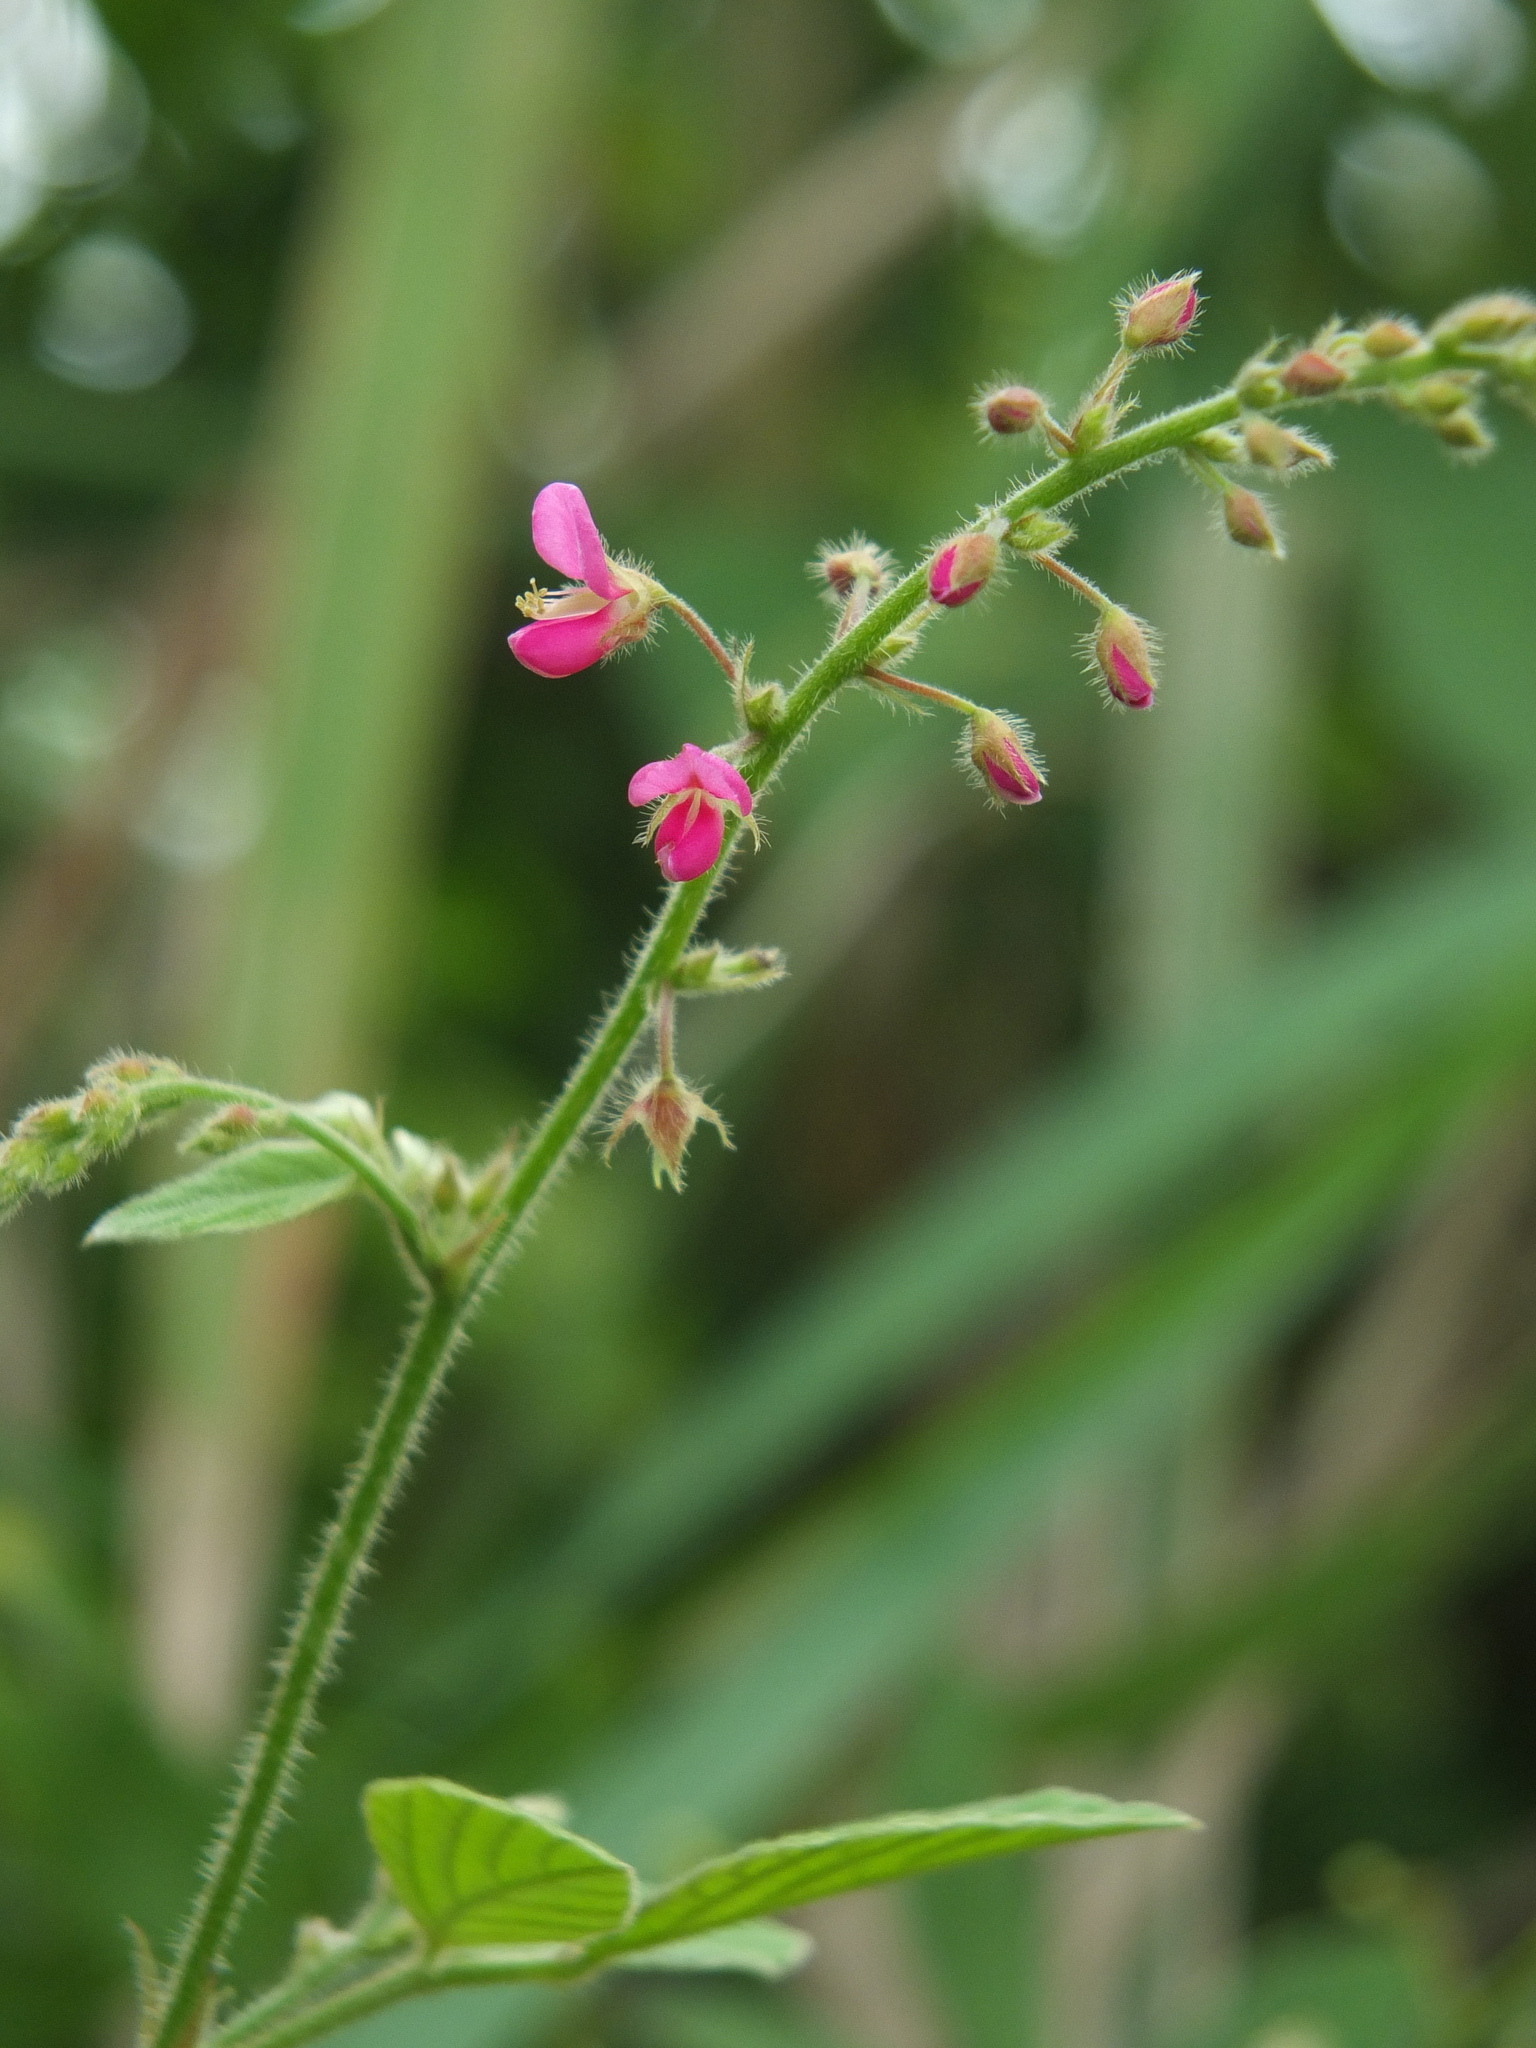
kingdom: Plantae
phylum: Tracheophyta
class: Magnoliopsida
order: Fabales
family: Fabaceae
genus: Pseudarthria
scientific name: Pseudarthria viscida
